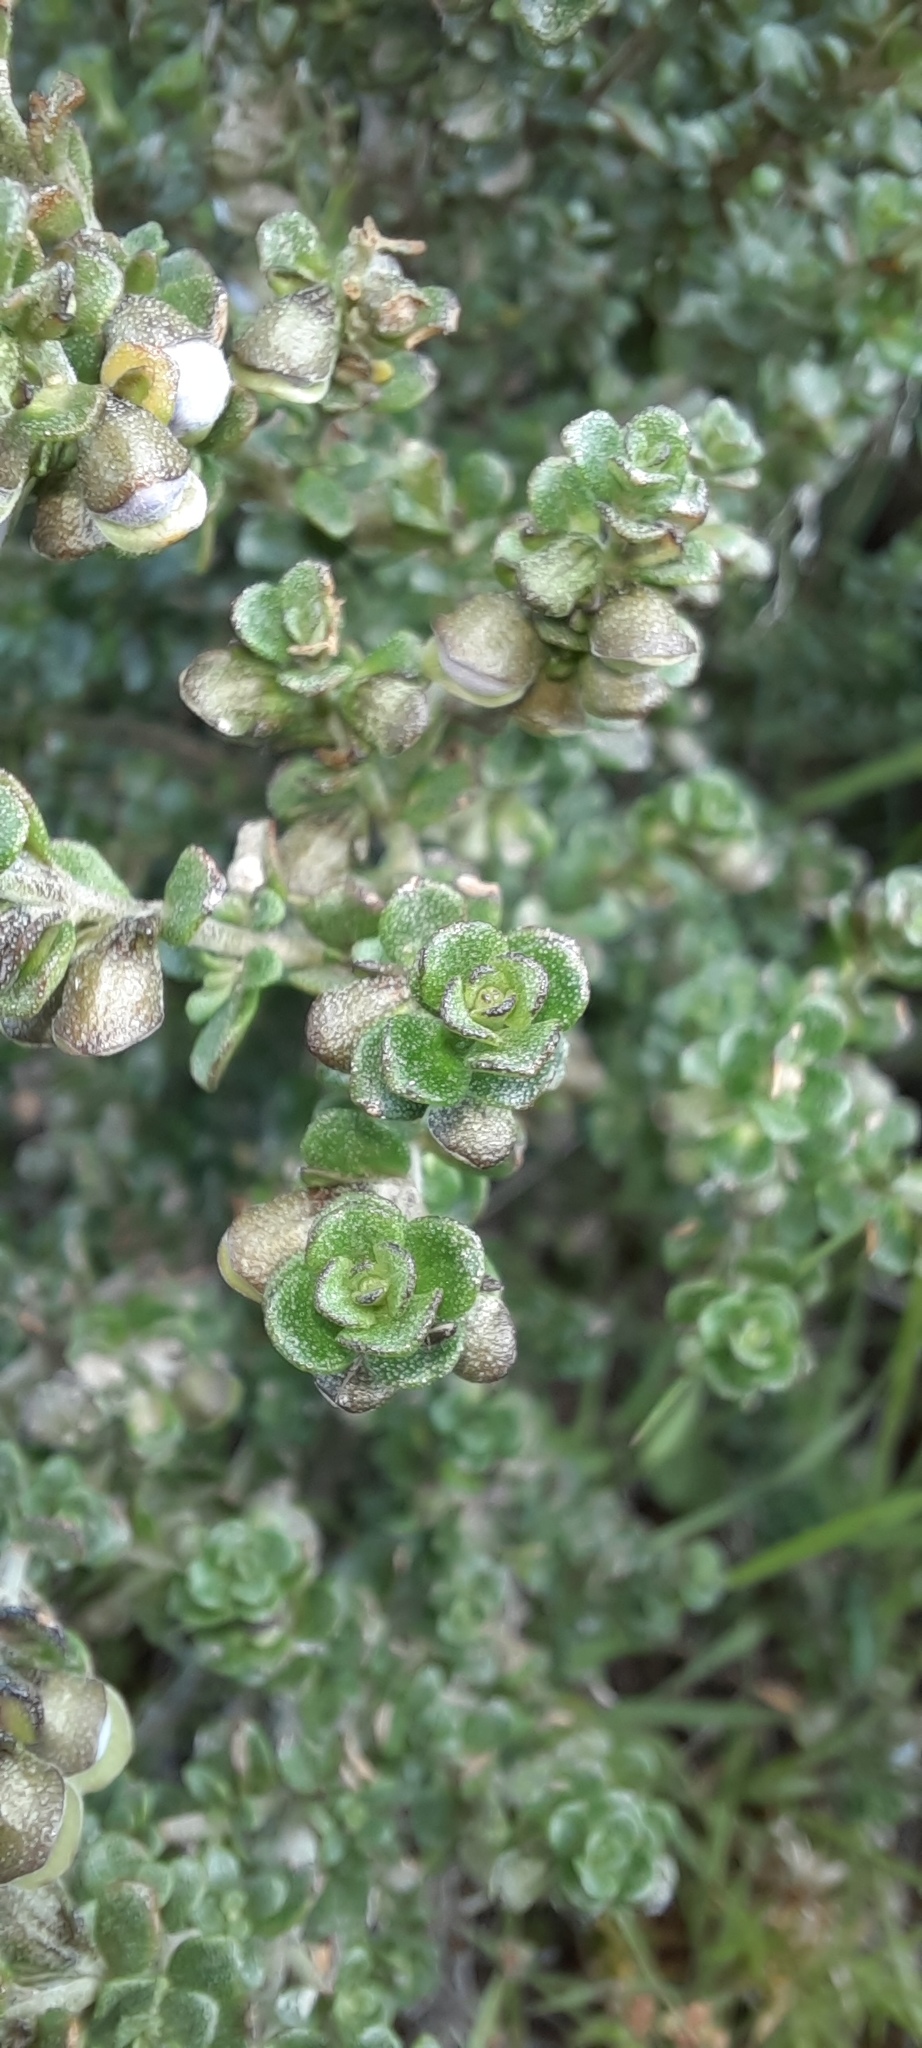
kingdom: Plantae
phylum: Tracheophyta
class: Magnoliopsida
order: Lamiales
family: Lamiaceae
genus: Prostanthera
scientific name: Prostanthera cuneata
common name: Alpine mintbush
